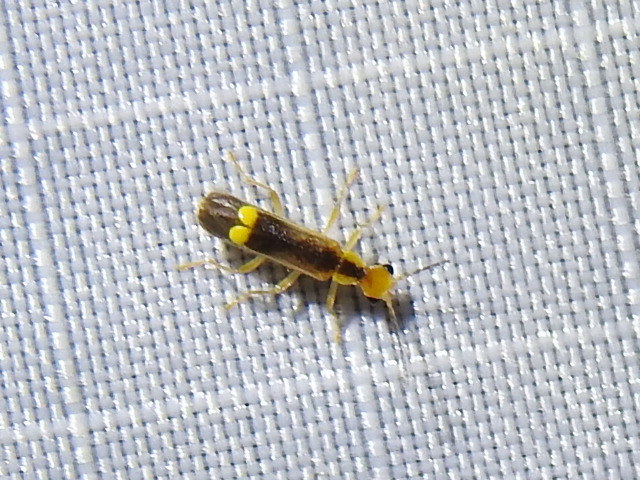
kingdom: Animalia
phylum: Arthropoda
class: Insecta
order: Coleoptera
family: Cantharidae
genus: Malthinus
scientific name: Malthinus occipitalis
